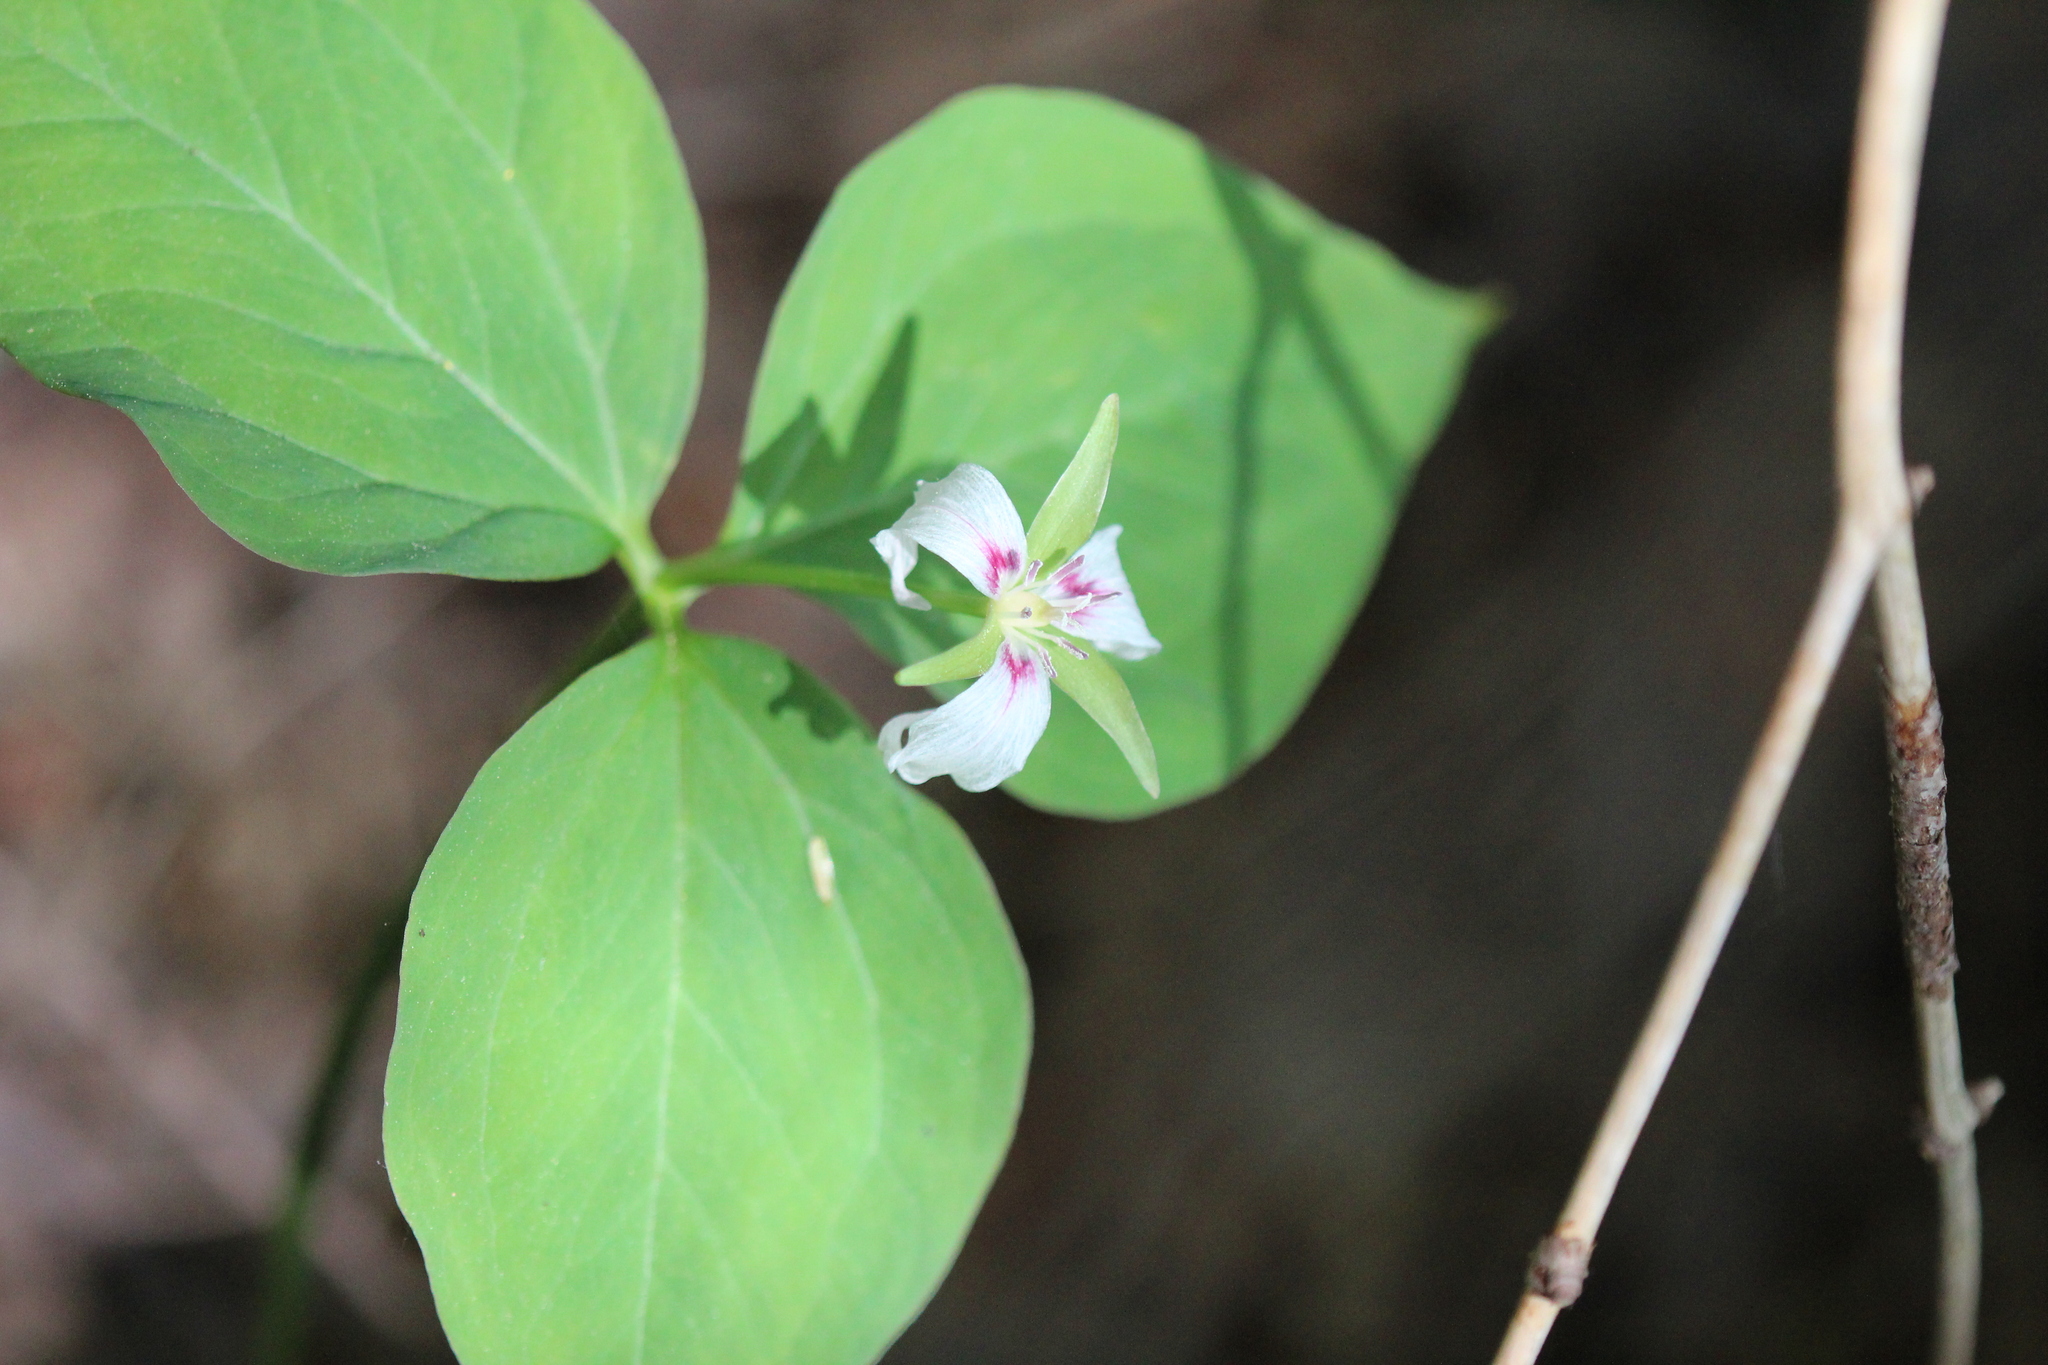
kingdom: Plantae
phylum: Tracheophyta
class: Liliopsida
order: Liliales
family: Melanthiaceae
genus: Trillium
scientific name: Trillium undulatum
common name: Paint trillium
